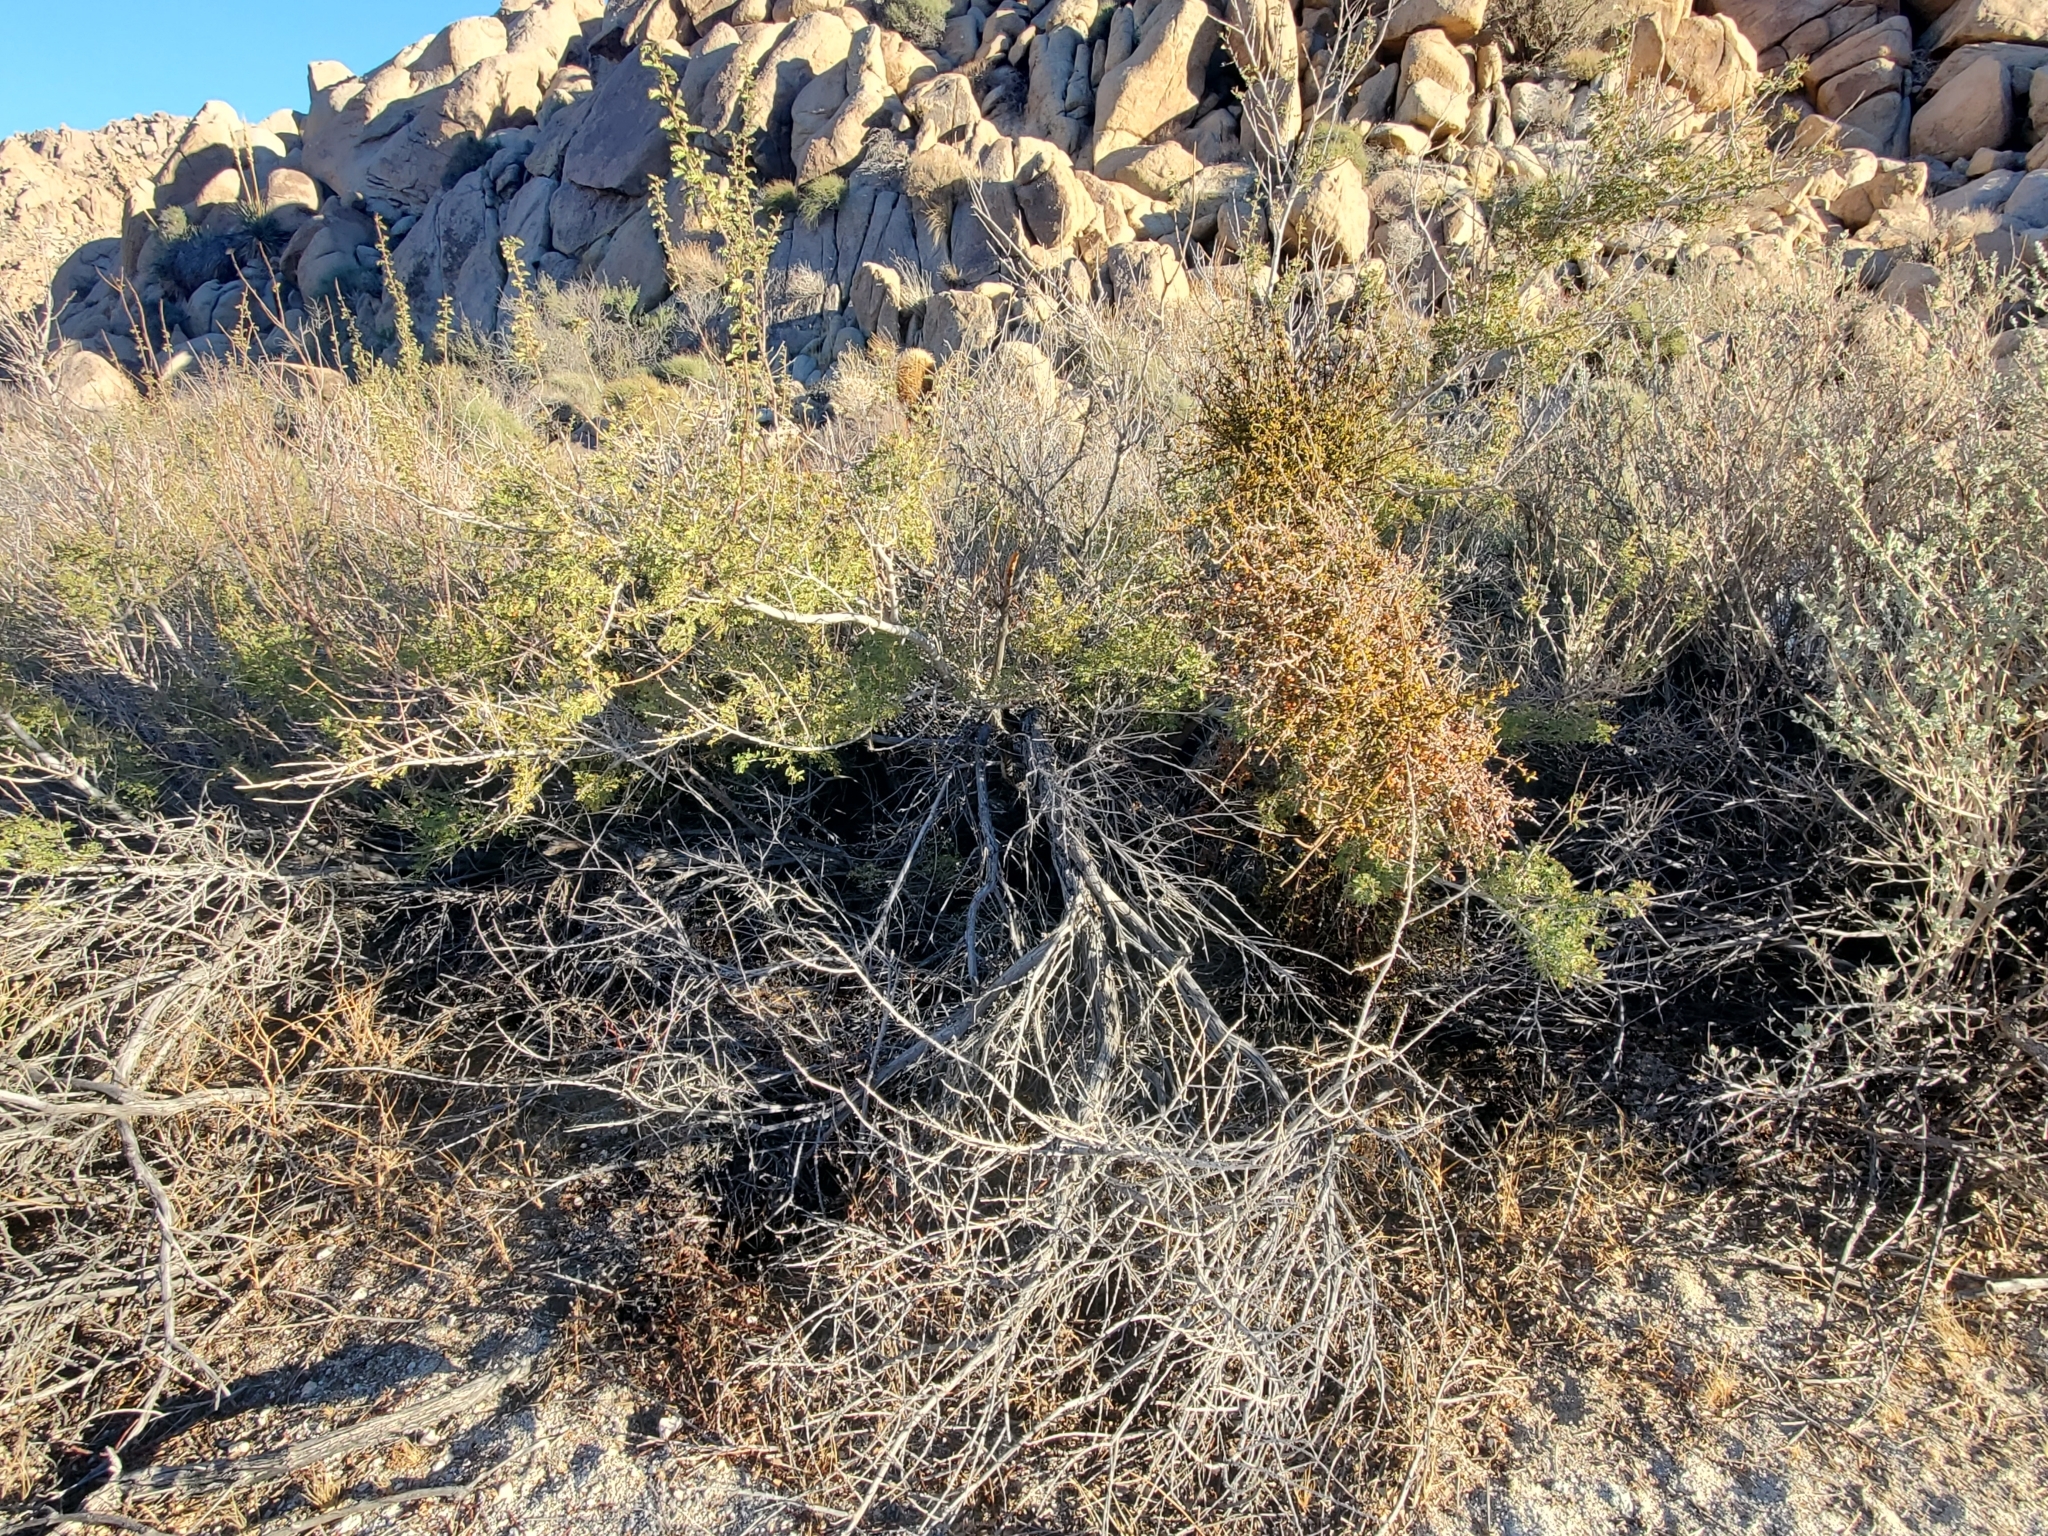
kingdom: Plantae
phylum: Tracheophyta
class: Magnoliopsida
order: Santalales
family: Viscaceae
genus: Phoradendron
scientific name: Phoradendron californicum
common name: Acacia mistletoe
